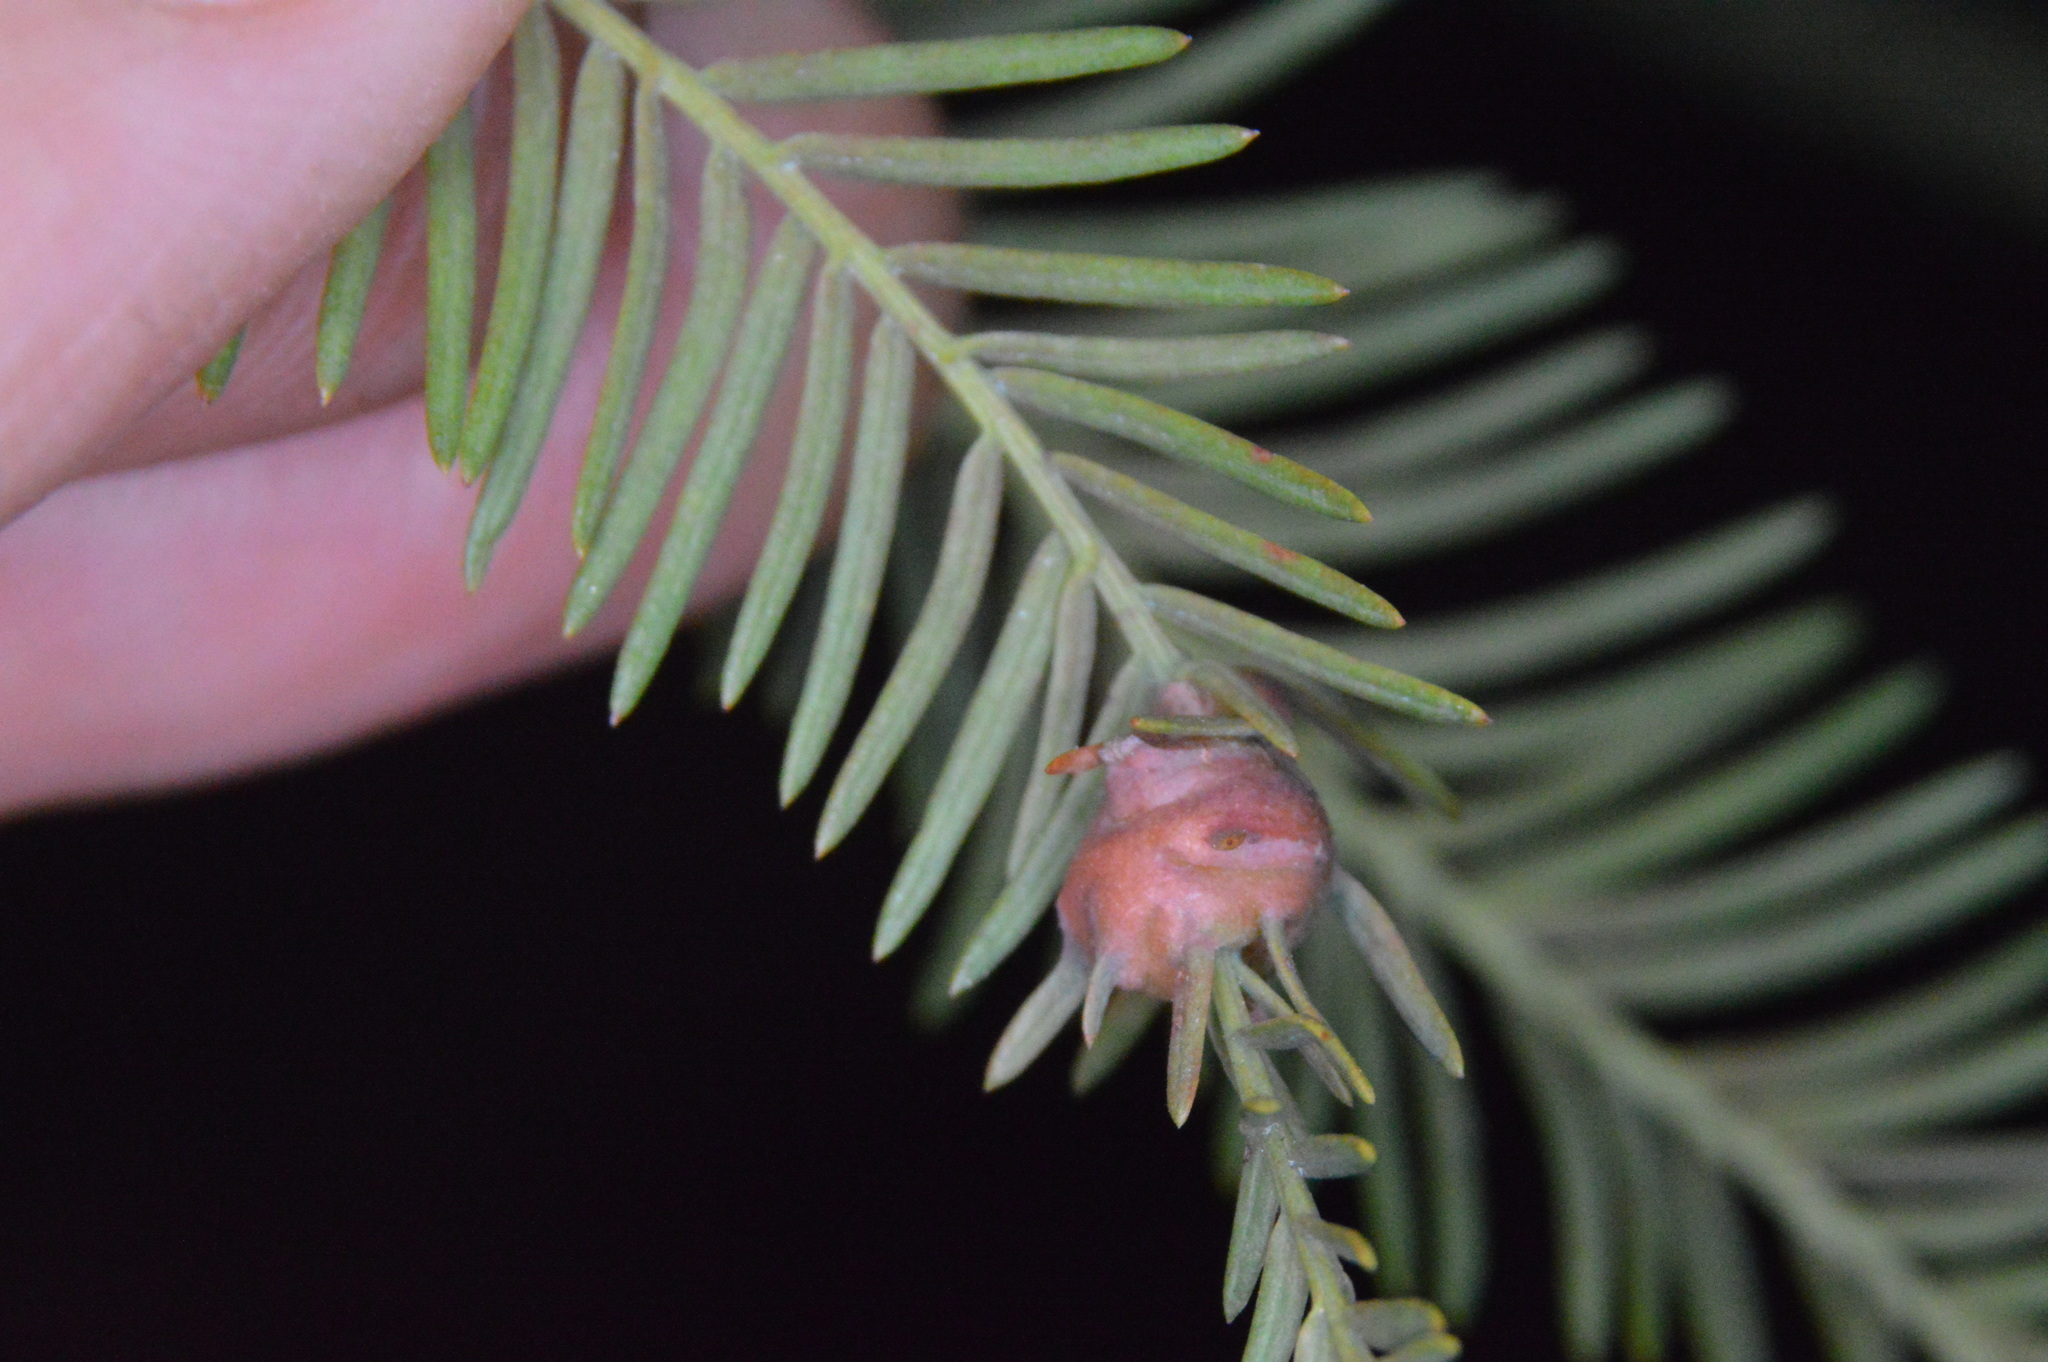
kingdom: Animalia
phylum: Arthropoda
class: Insecta
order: Diptera
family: Cecidomyiidae
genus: Taxodiomyia
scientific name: Taxodiomyia cupressiananassa
